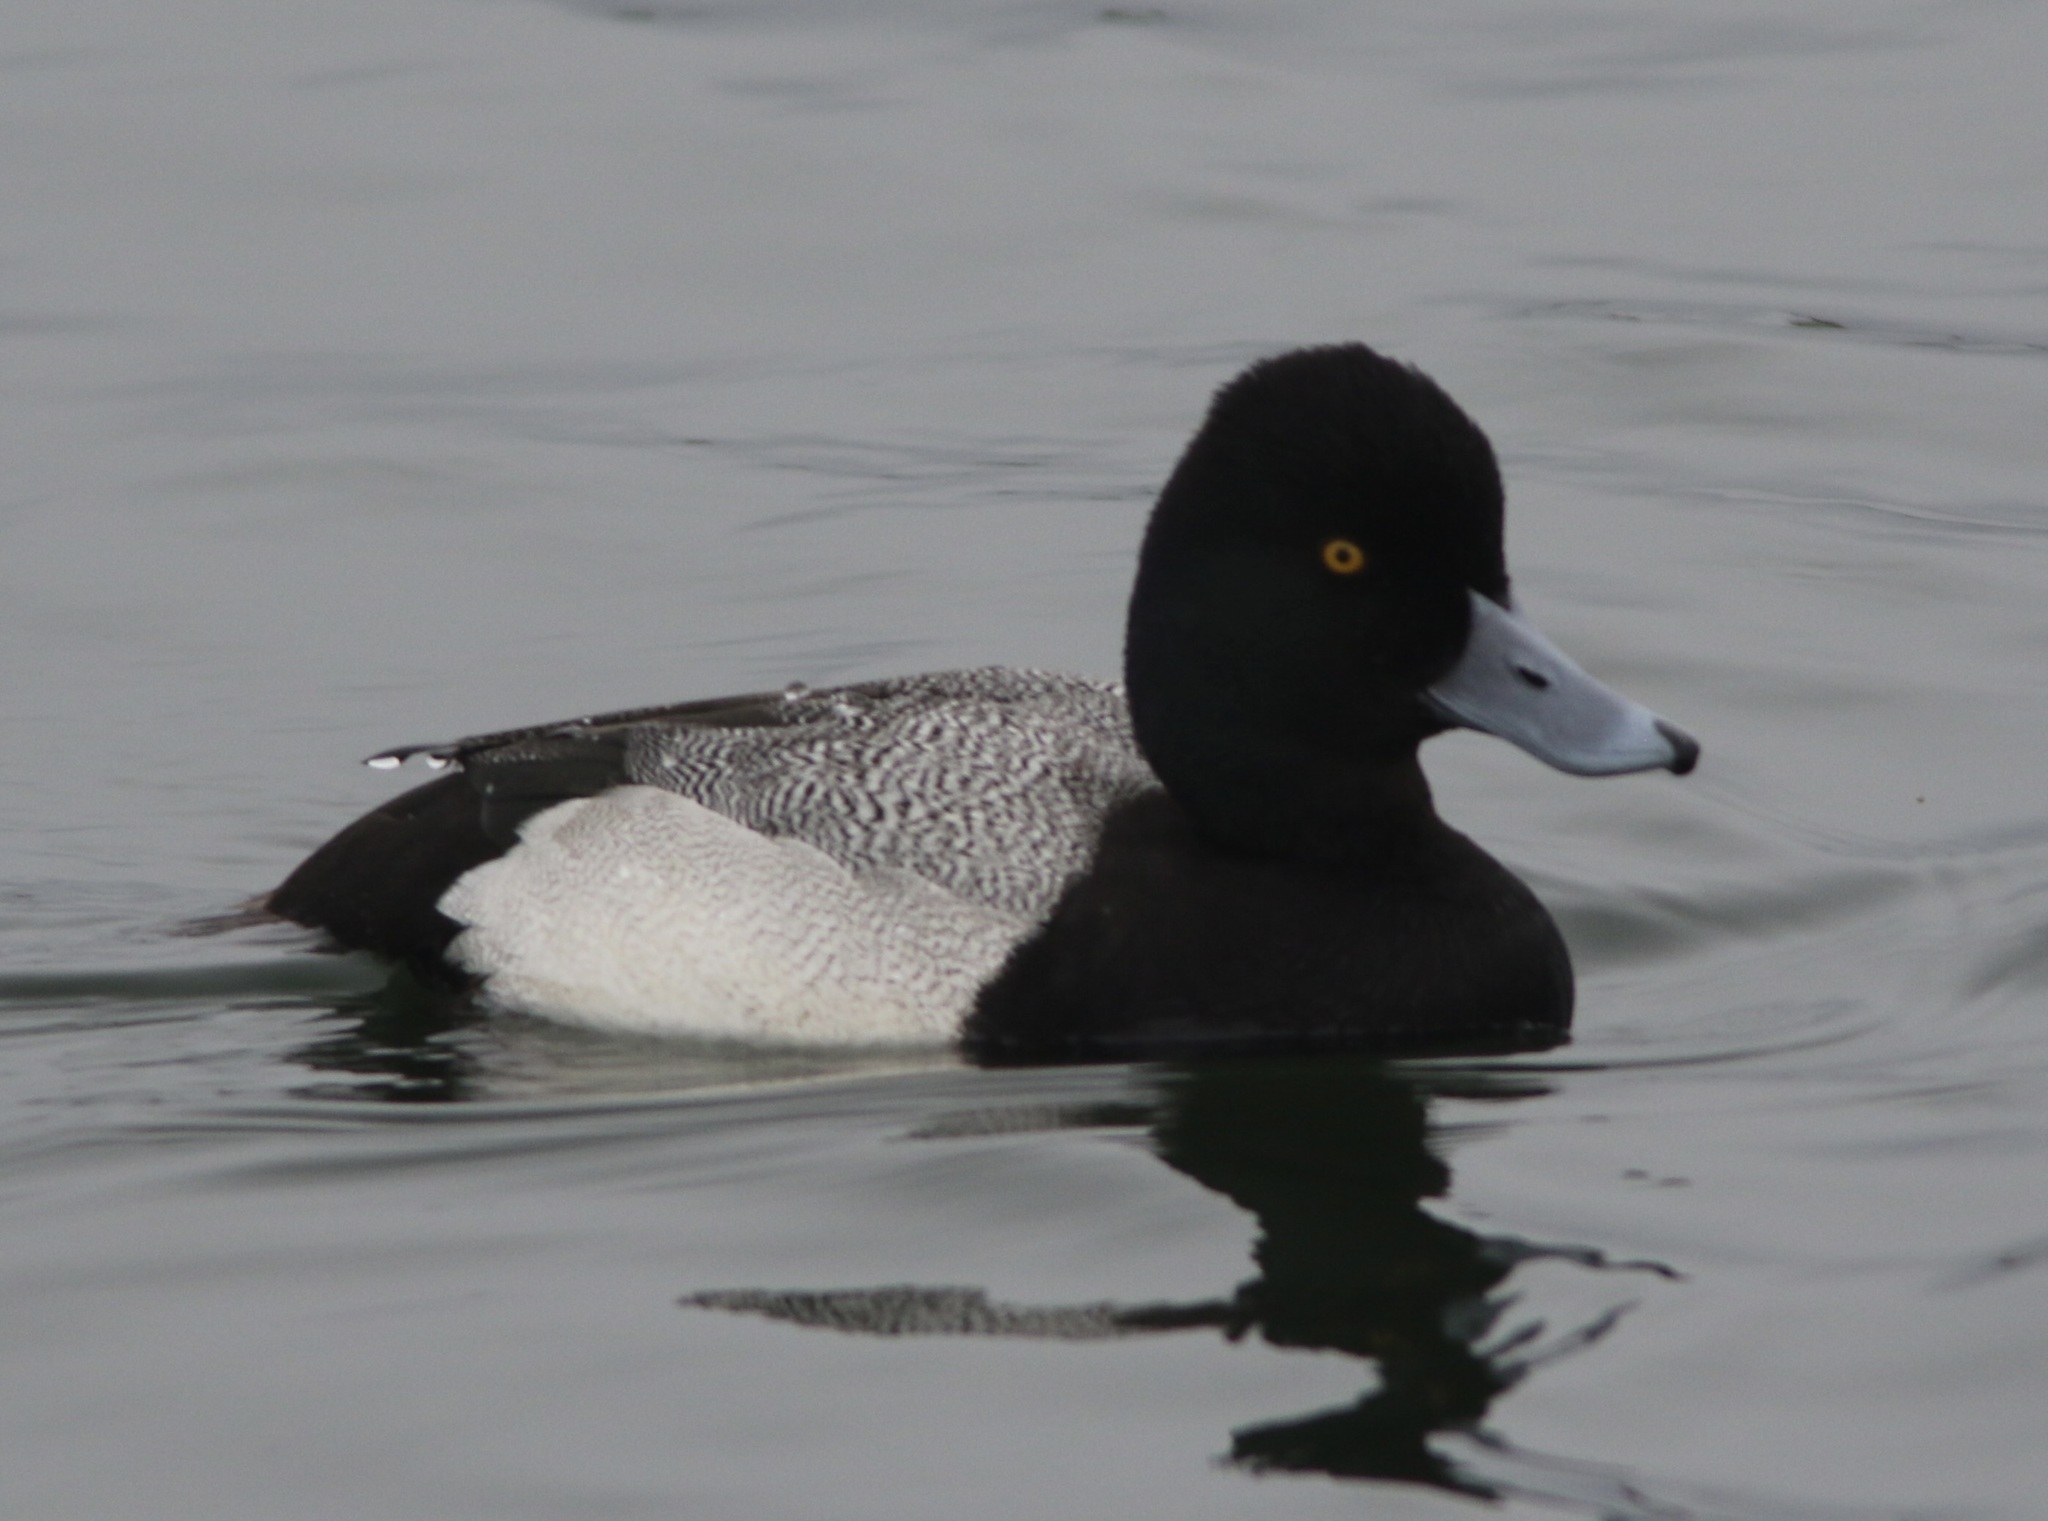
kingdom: Animalia
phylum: Chordata
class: Aves
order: Anseriformes
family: Anatidae
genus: Aythya
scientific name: Aythya affinis
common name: Lesser scaup
